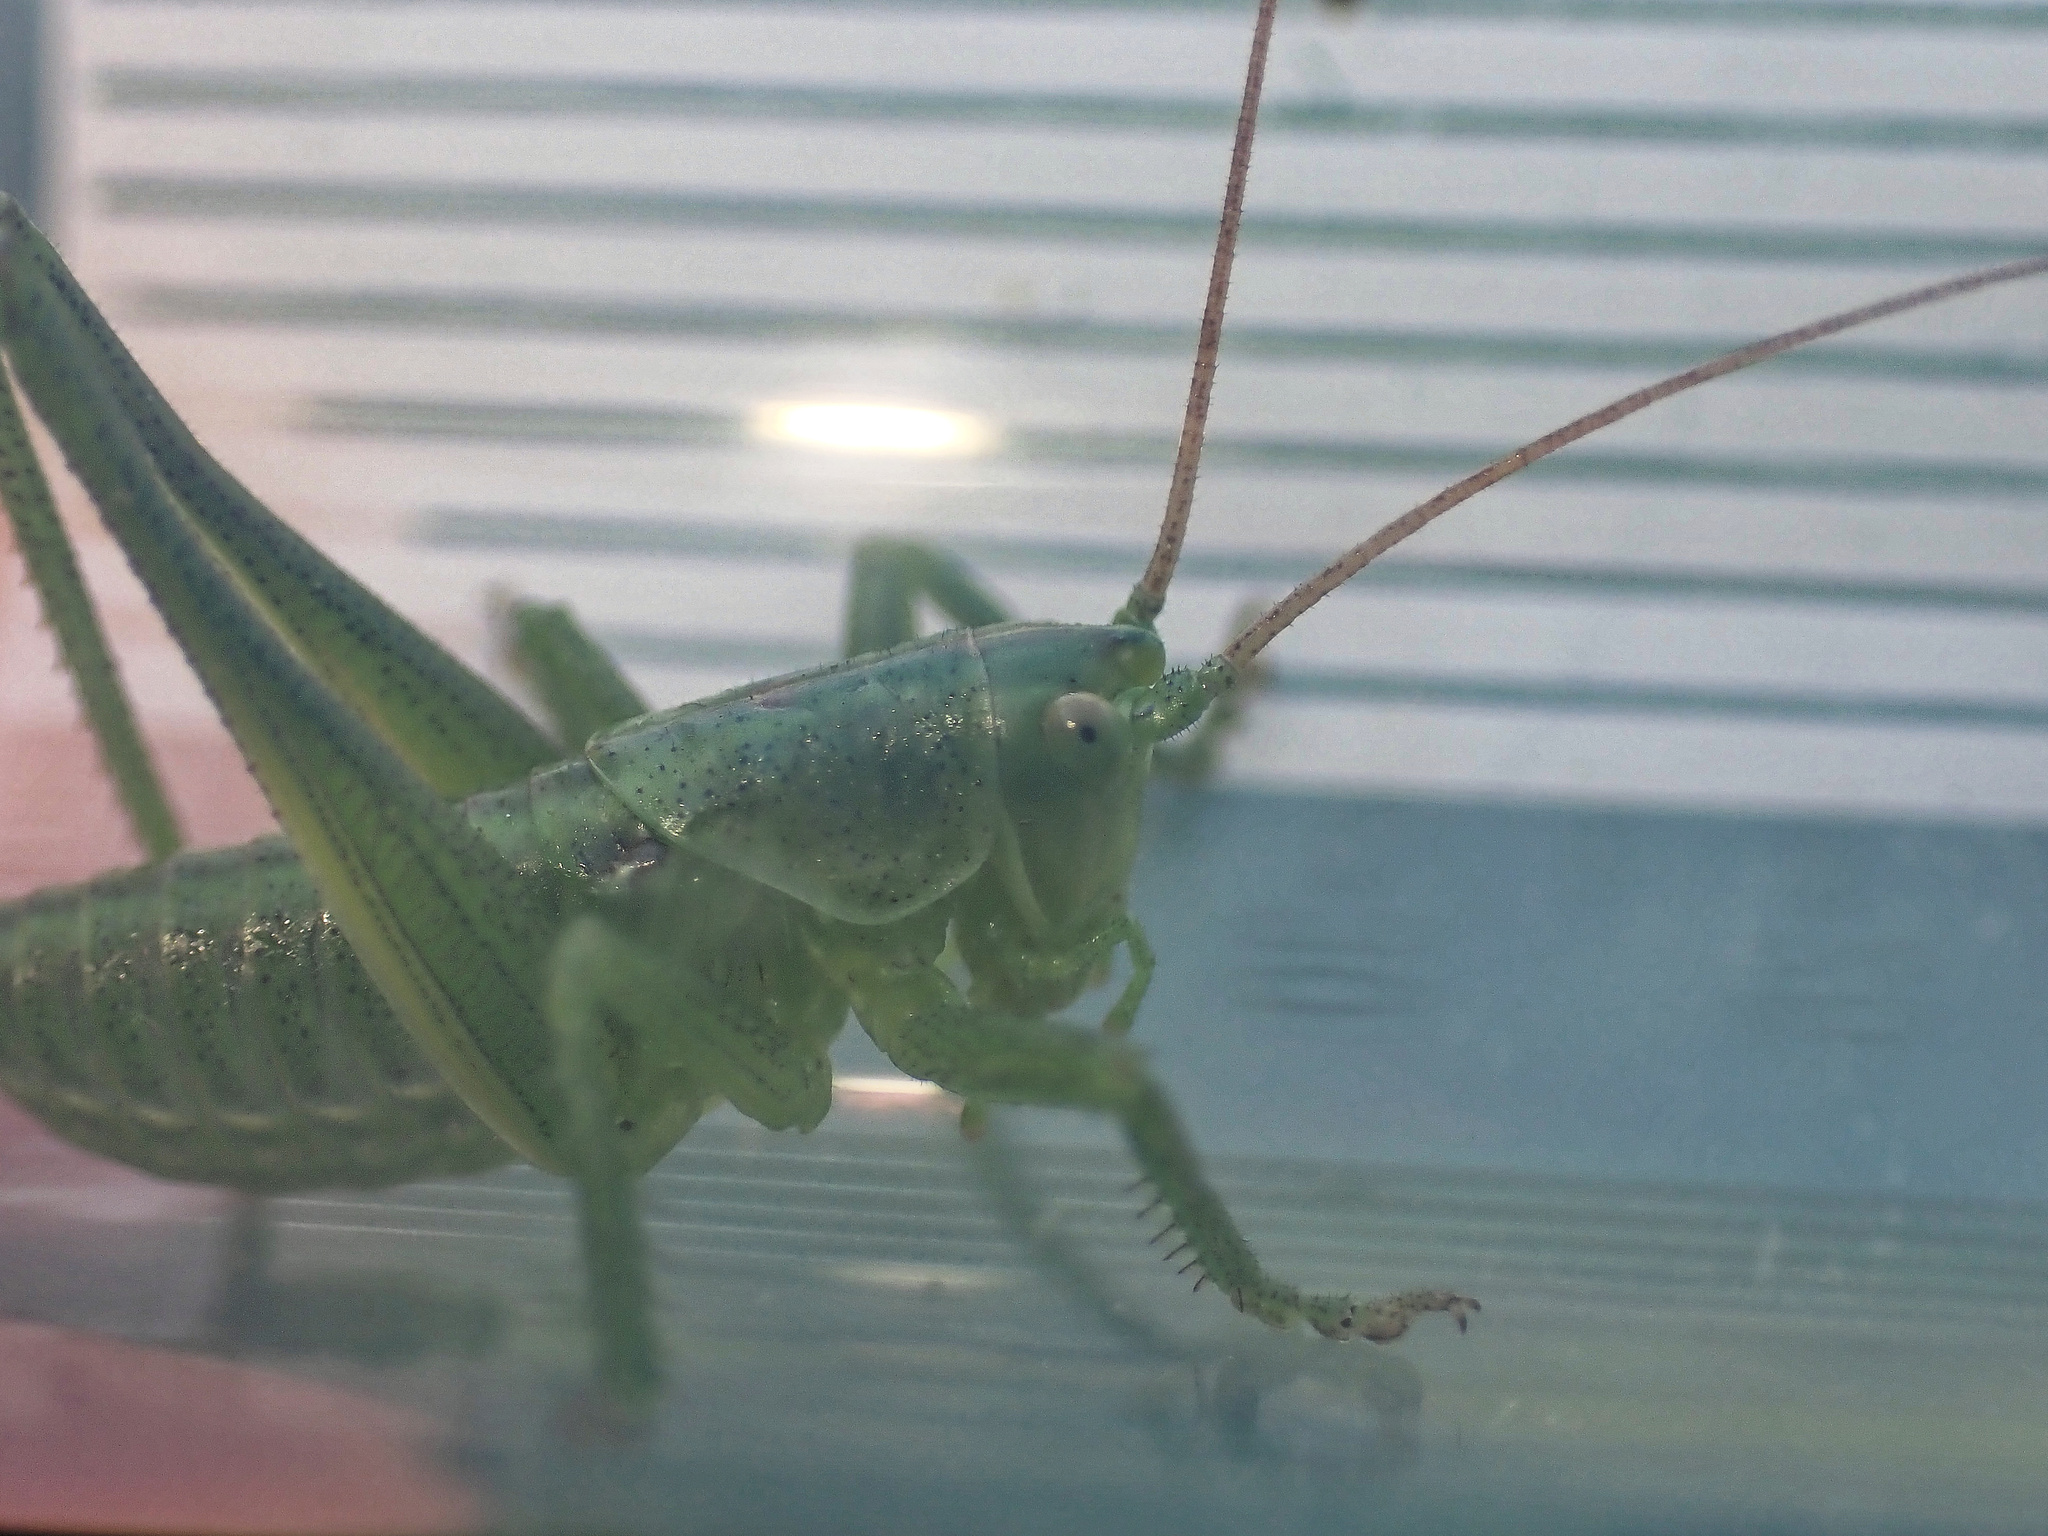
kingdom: Animalia
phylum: Arthropoda
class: Insecta
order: Orthoptera
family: Tettigoniidae
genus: Tettigonia
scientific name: Tettigonia viridissima
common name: Great green bush-cricket
